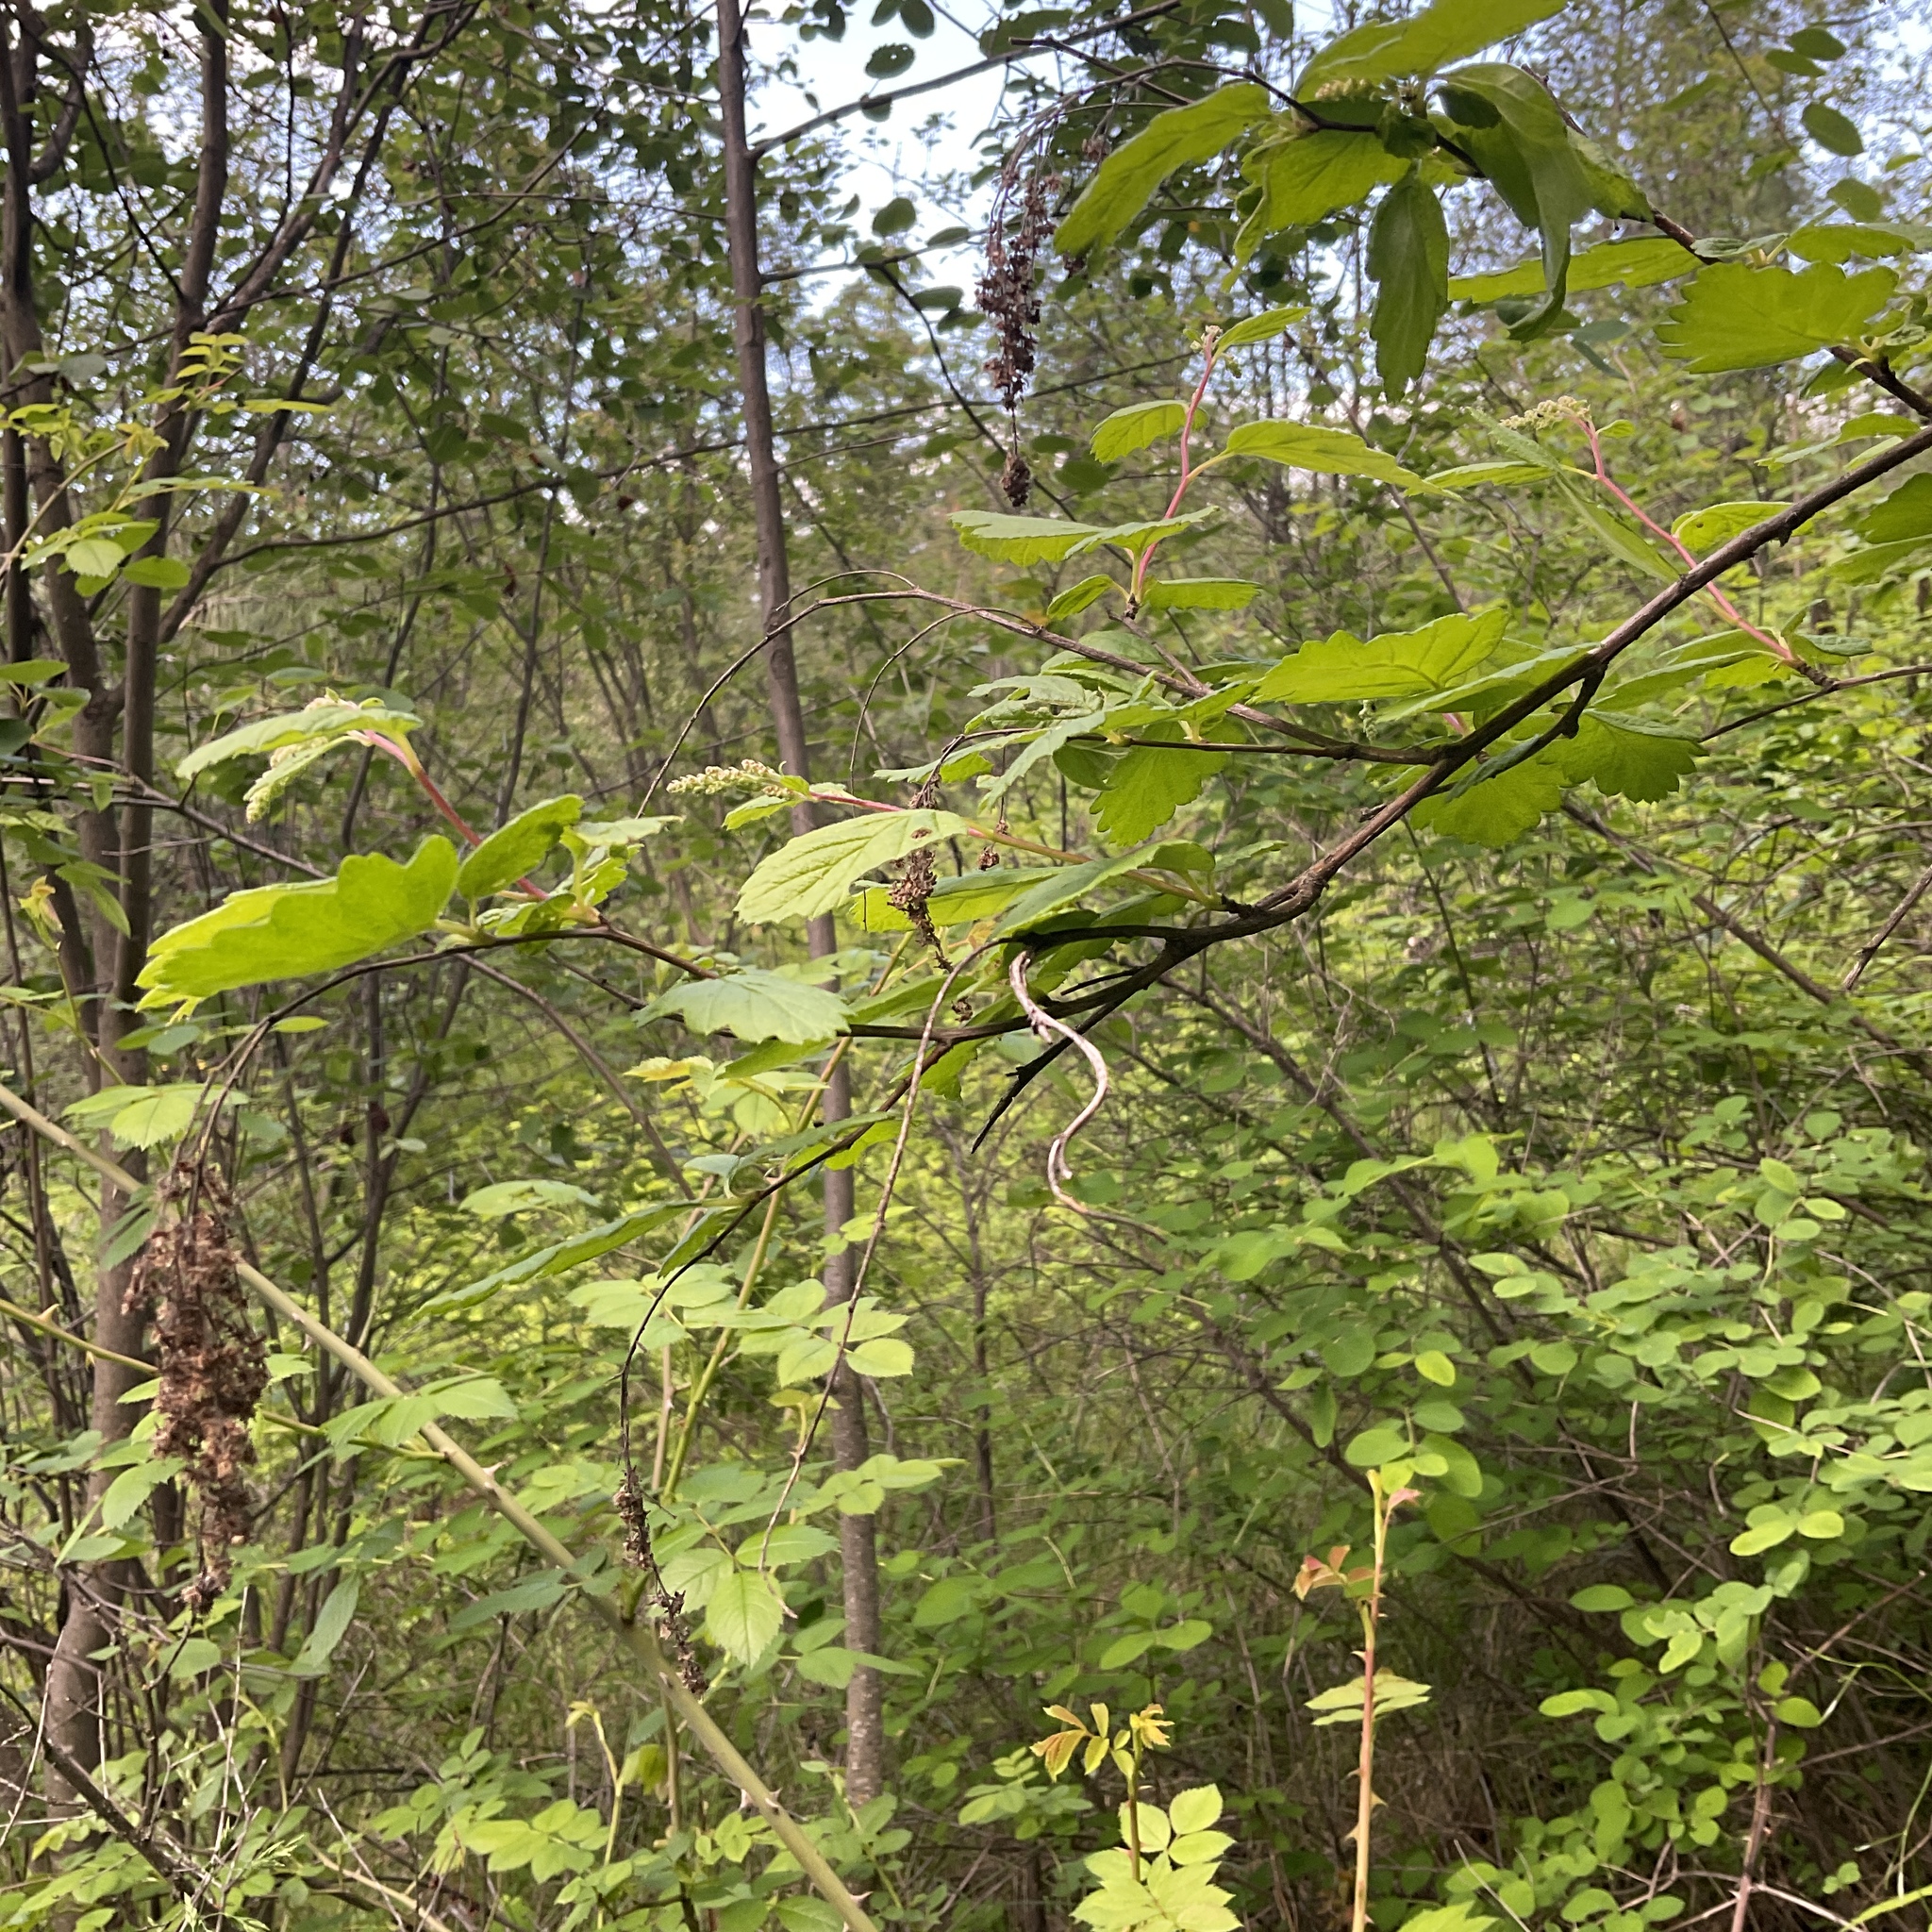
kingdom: Plantae
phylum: Tracheophyta
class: Magnoliopsida
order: Rosales
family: Rosaceae
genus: Holodiscus
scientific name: Holodiscus discolor
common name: Oceanspray
